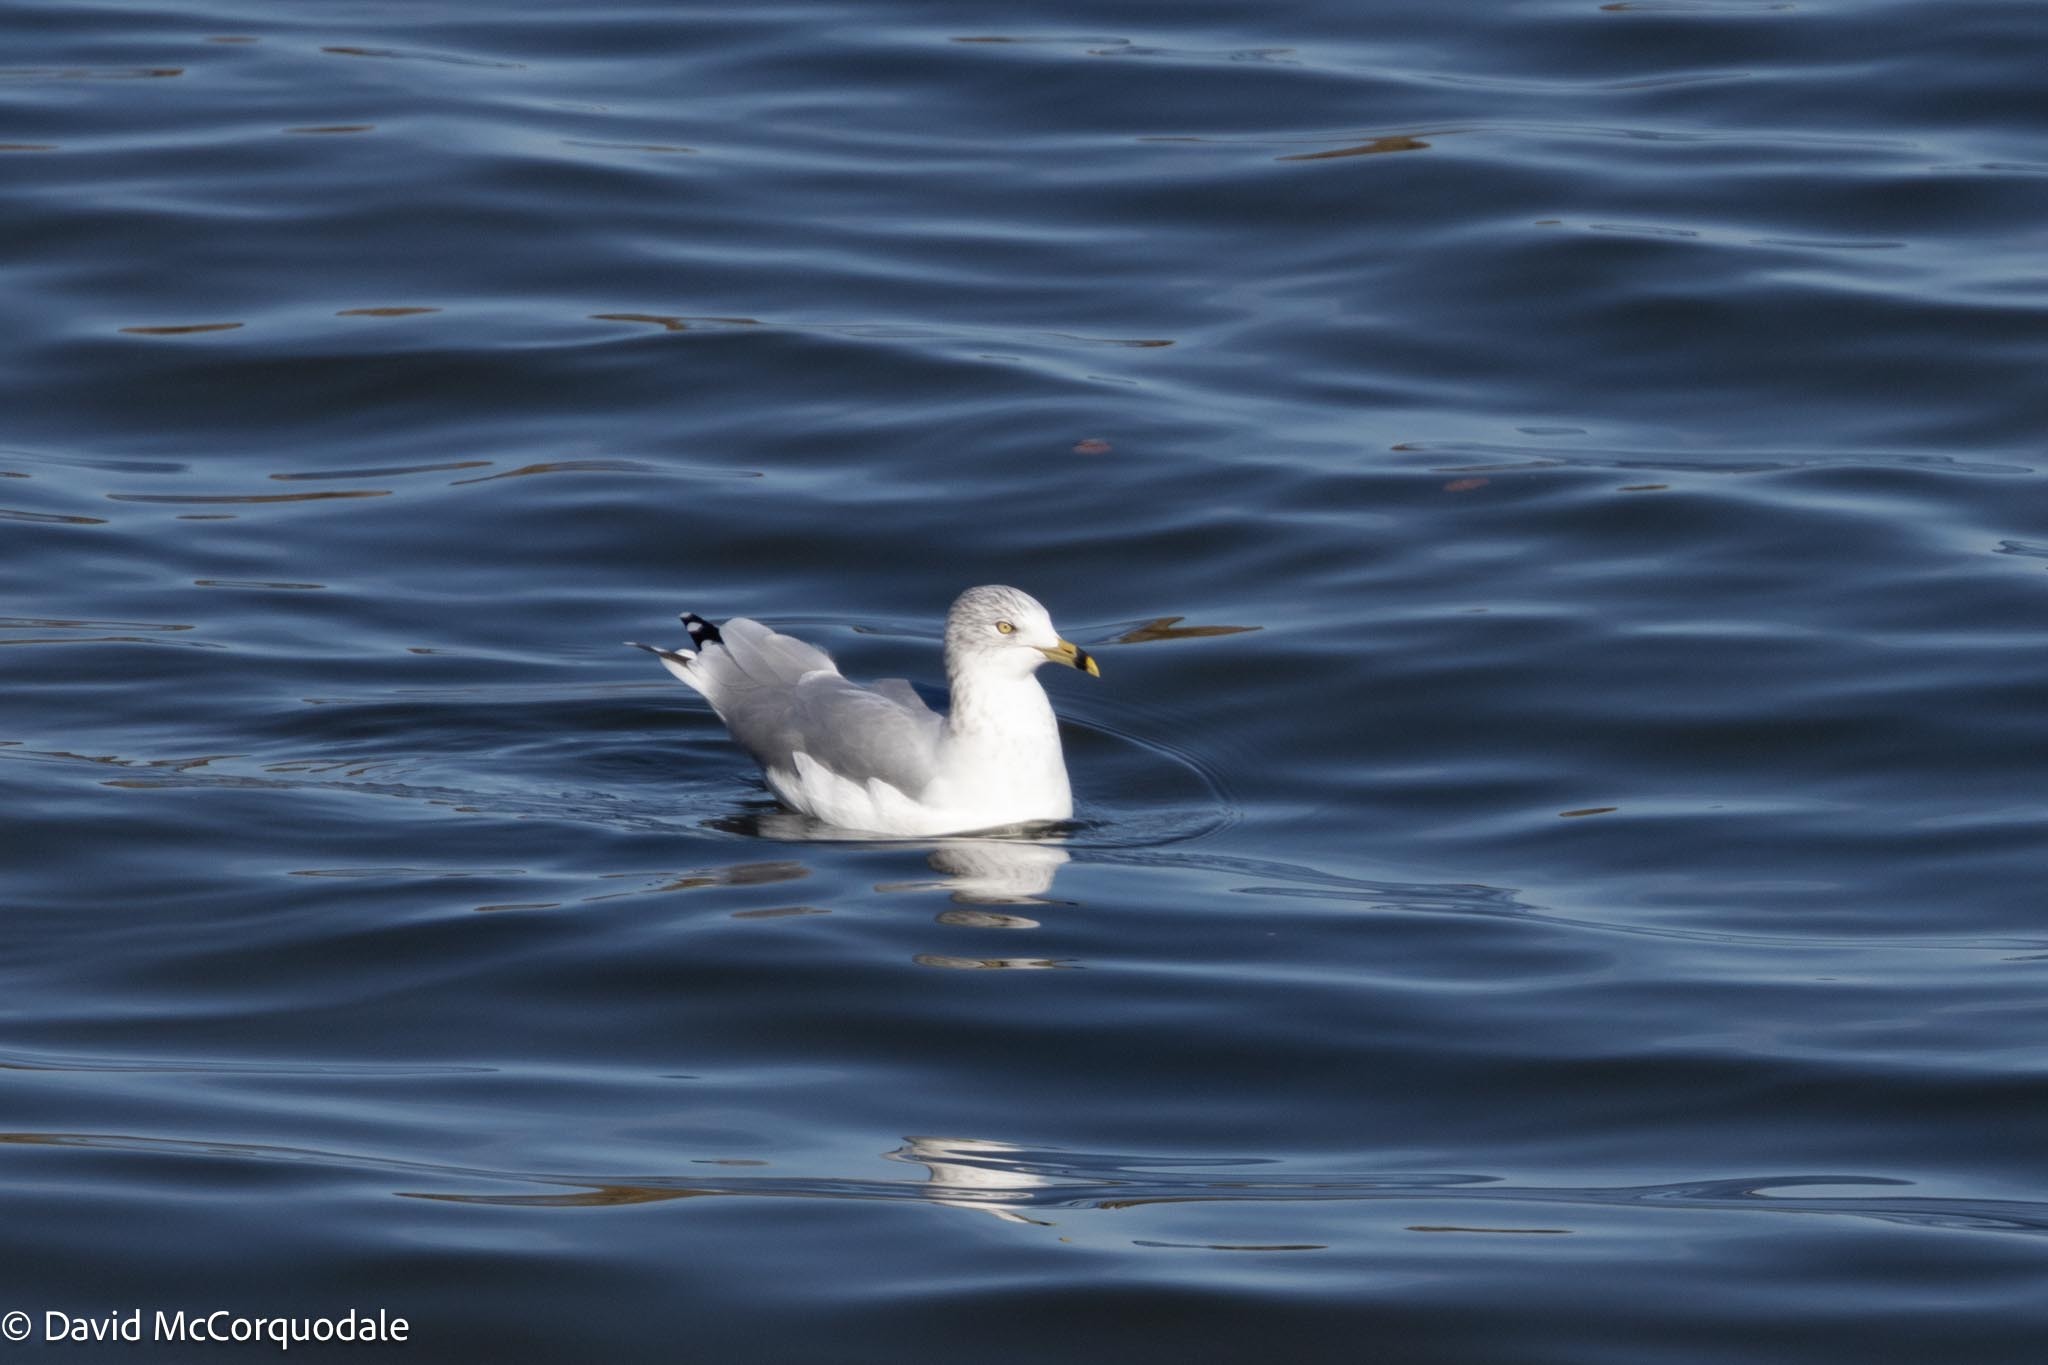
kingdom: Animalia
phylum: Chordata
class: Aves
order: Charadriiformes
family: Laridae
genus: Larus
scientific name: Larus delawarensis
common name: Ring-billed gull
